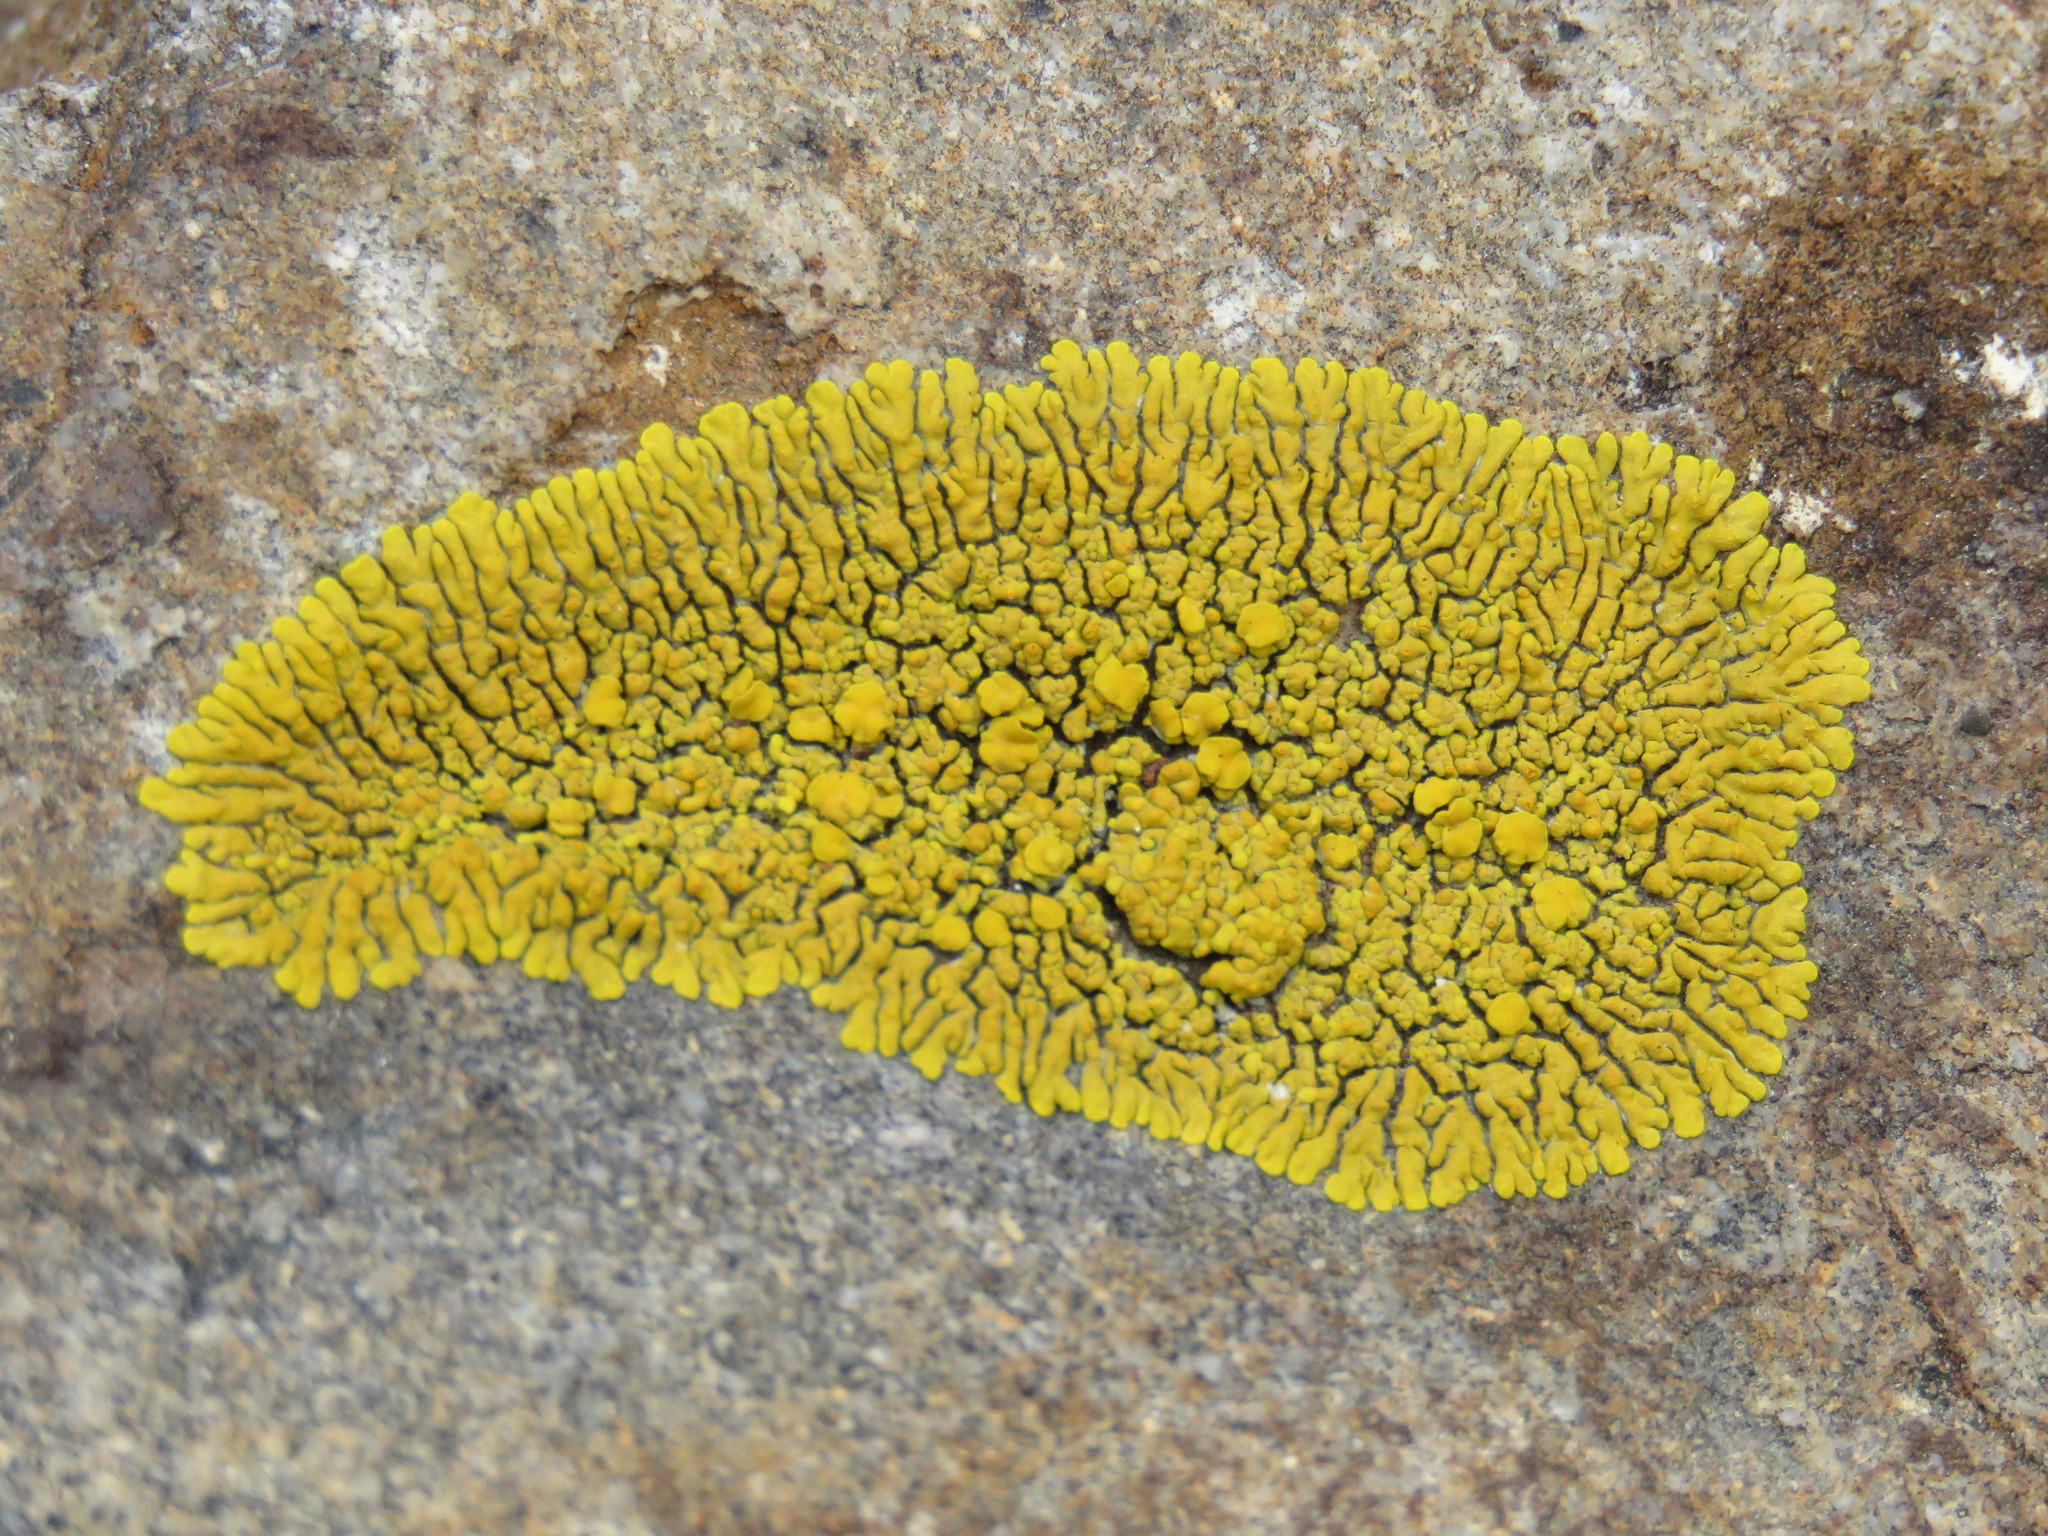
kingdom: Fungi
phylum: Ascomycota
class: Candelariomycetes
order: Candelariales
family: Candelariaceae
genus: Candelina
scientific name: Candelina submexicana
